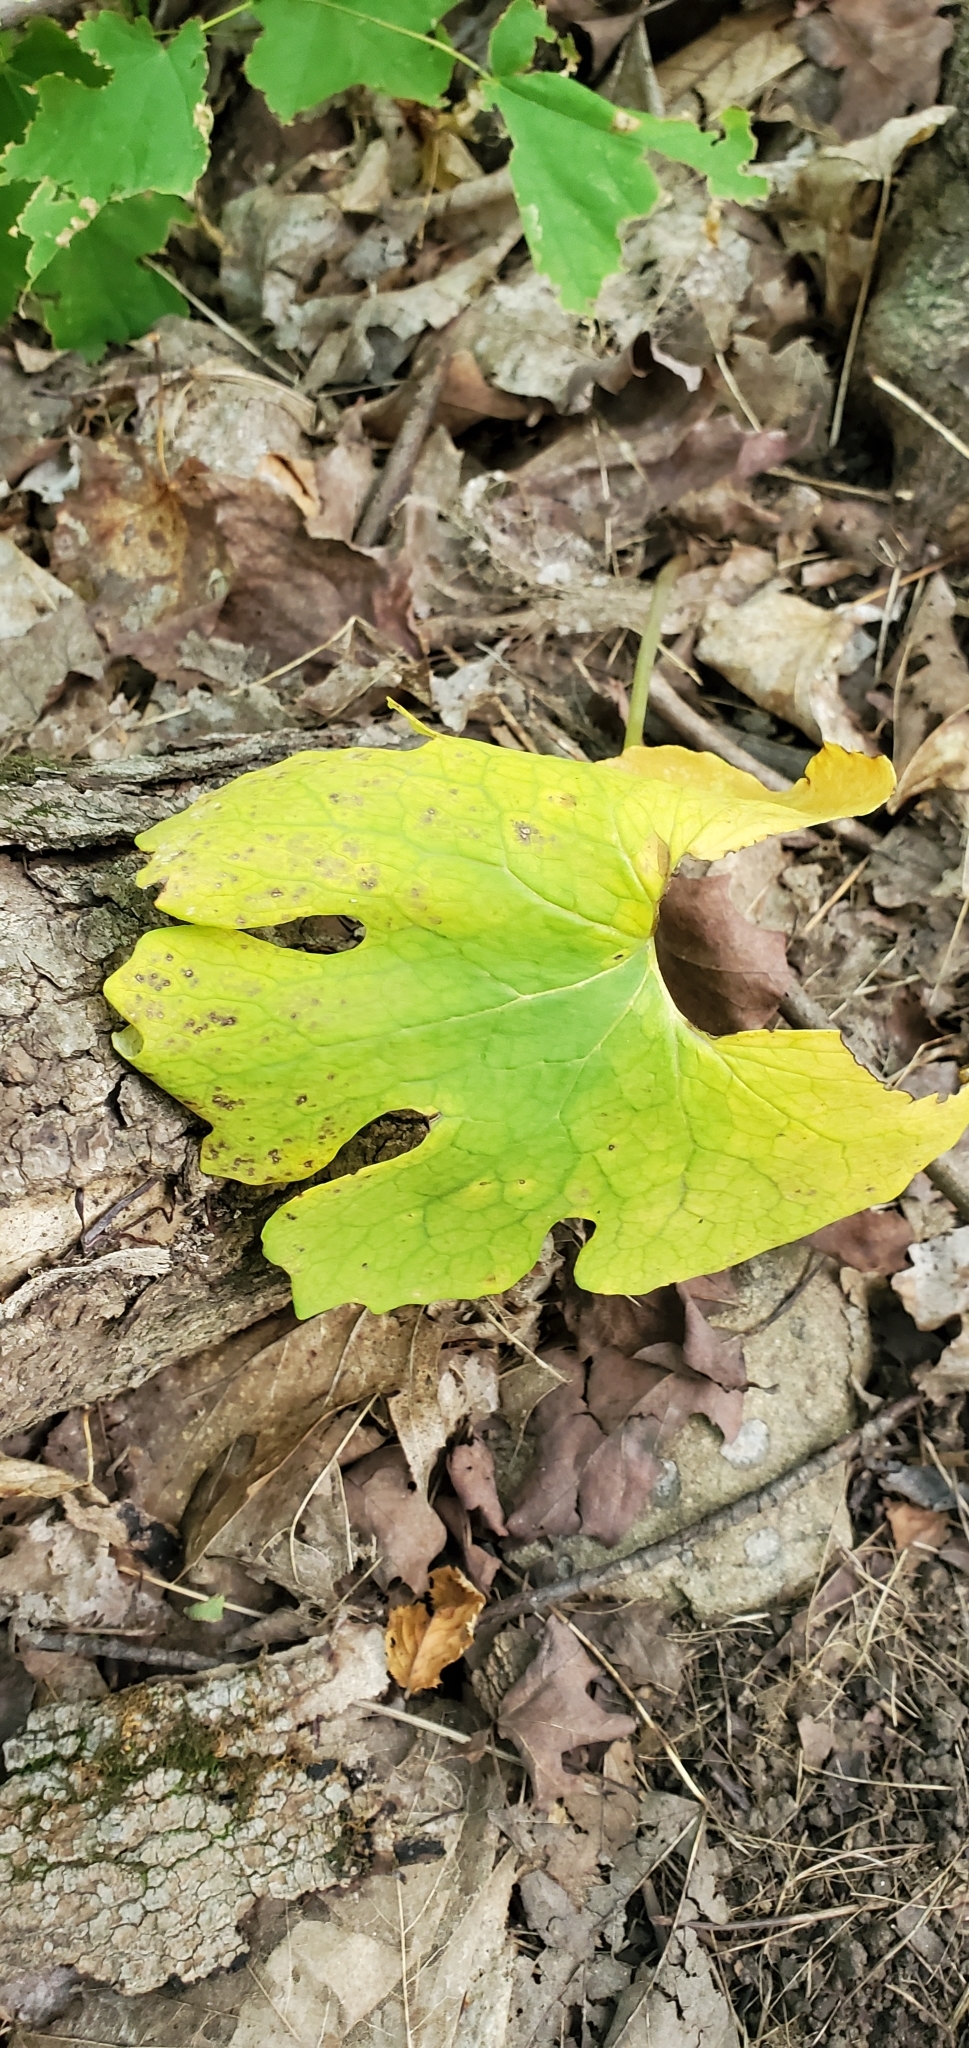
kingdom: Plantae
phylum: Tracheophyta
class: Magnoliopsida
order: Ranunculales
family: Papaveraceae
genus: Sanguinaria
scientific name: Sanguinaria canadensis
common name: Bloodroot
